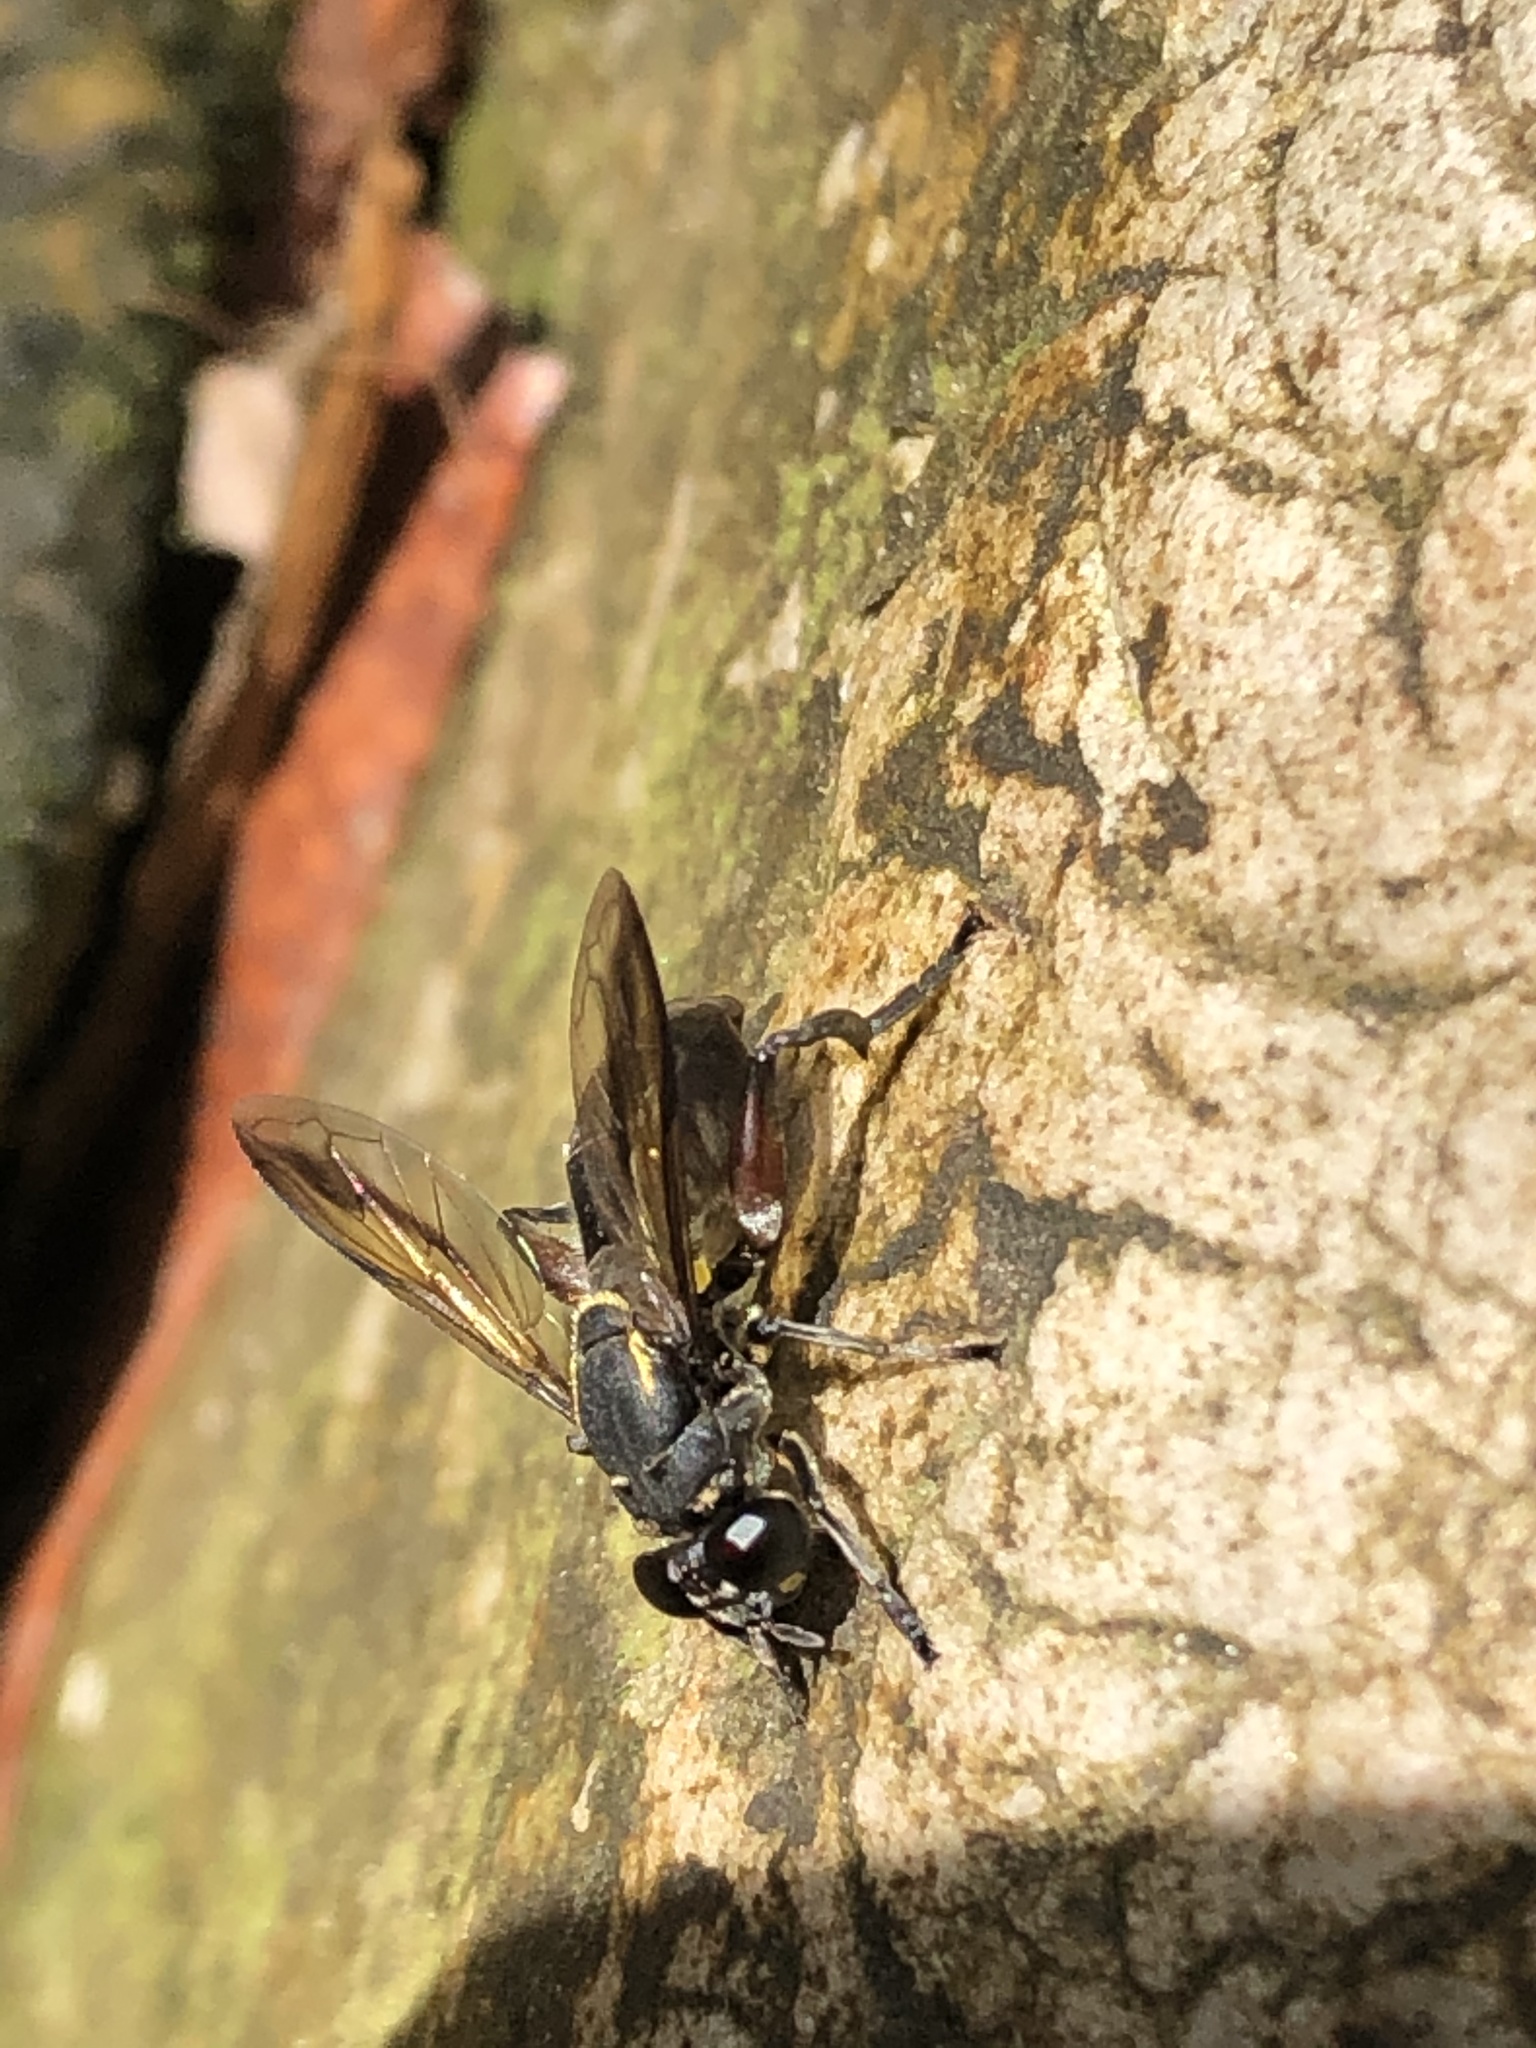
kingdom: Animalia
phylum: Arthropoda
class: Insecta
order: Diptera
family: Syrphidae
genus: Sterphus
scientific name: Sterphus plagiatus
